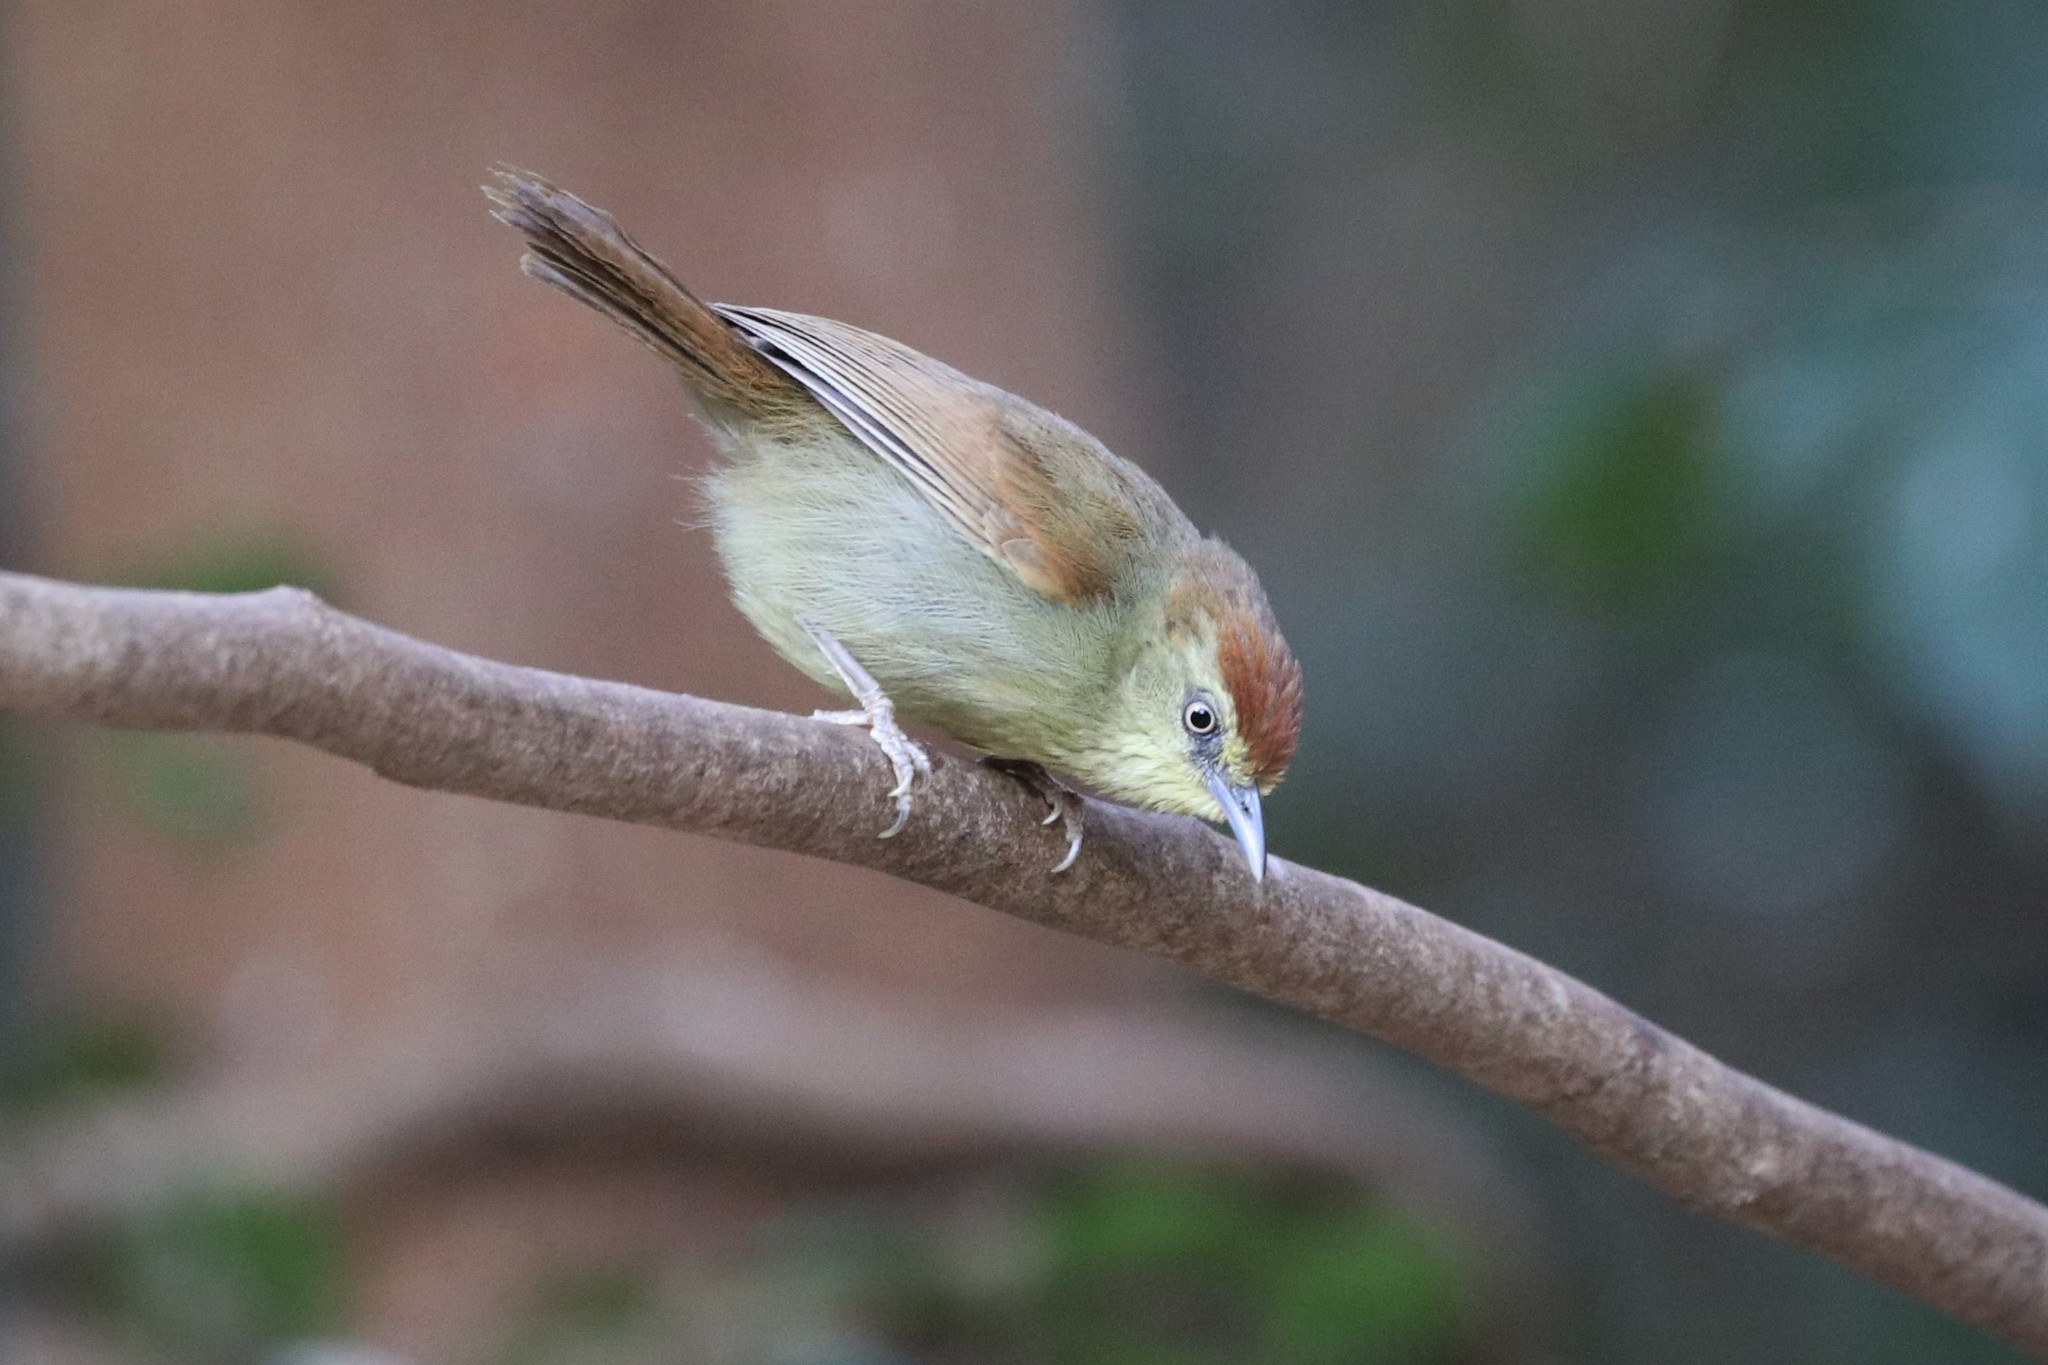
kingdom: Animalia
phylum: Chordata
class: Aves
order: Passeriformes
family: Timaliidae
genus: Macronus
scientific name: Macronus gularis
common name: Striped tit-babbler
